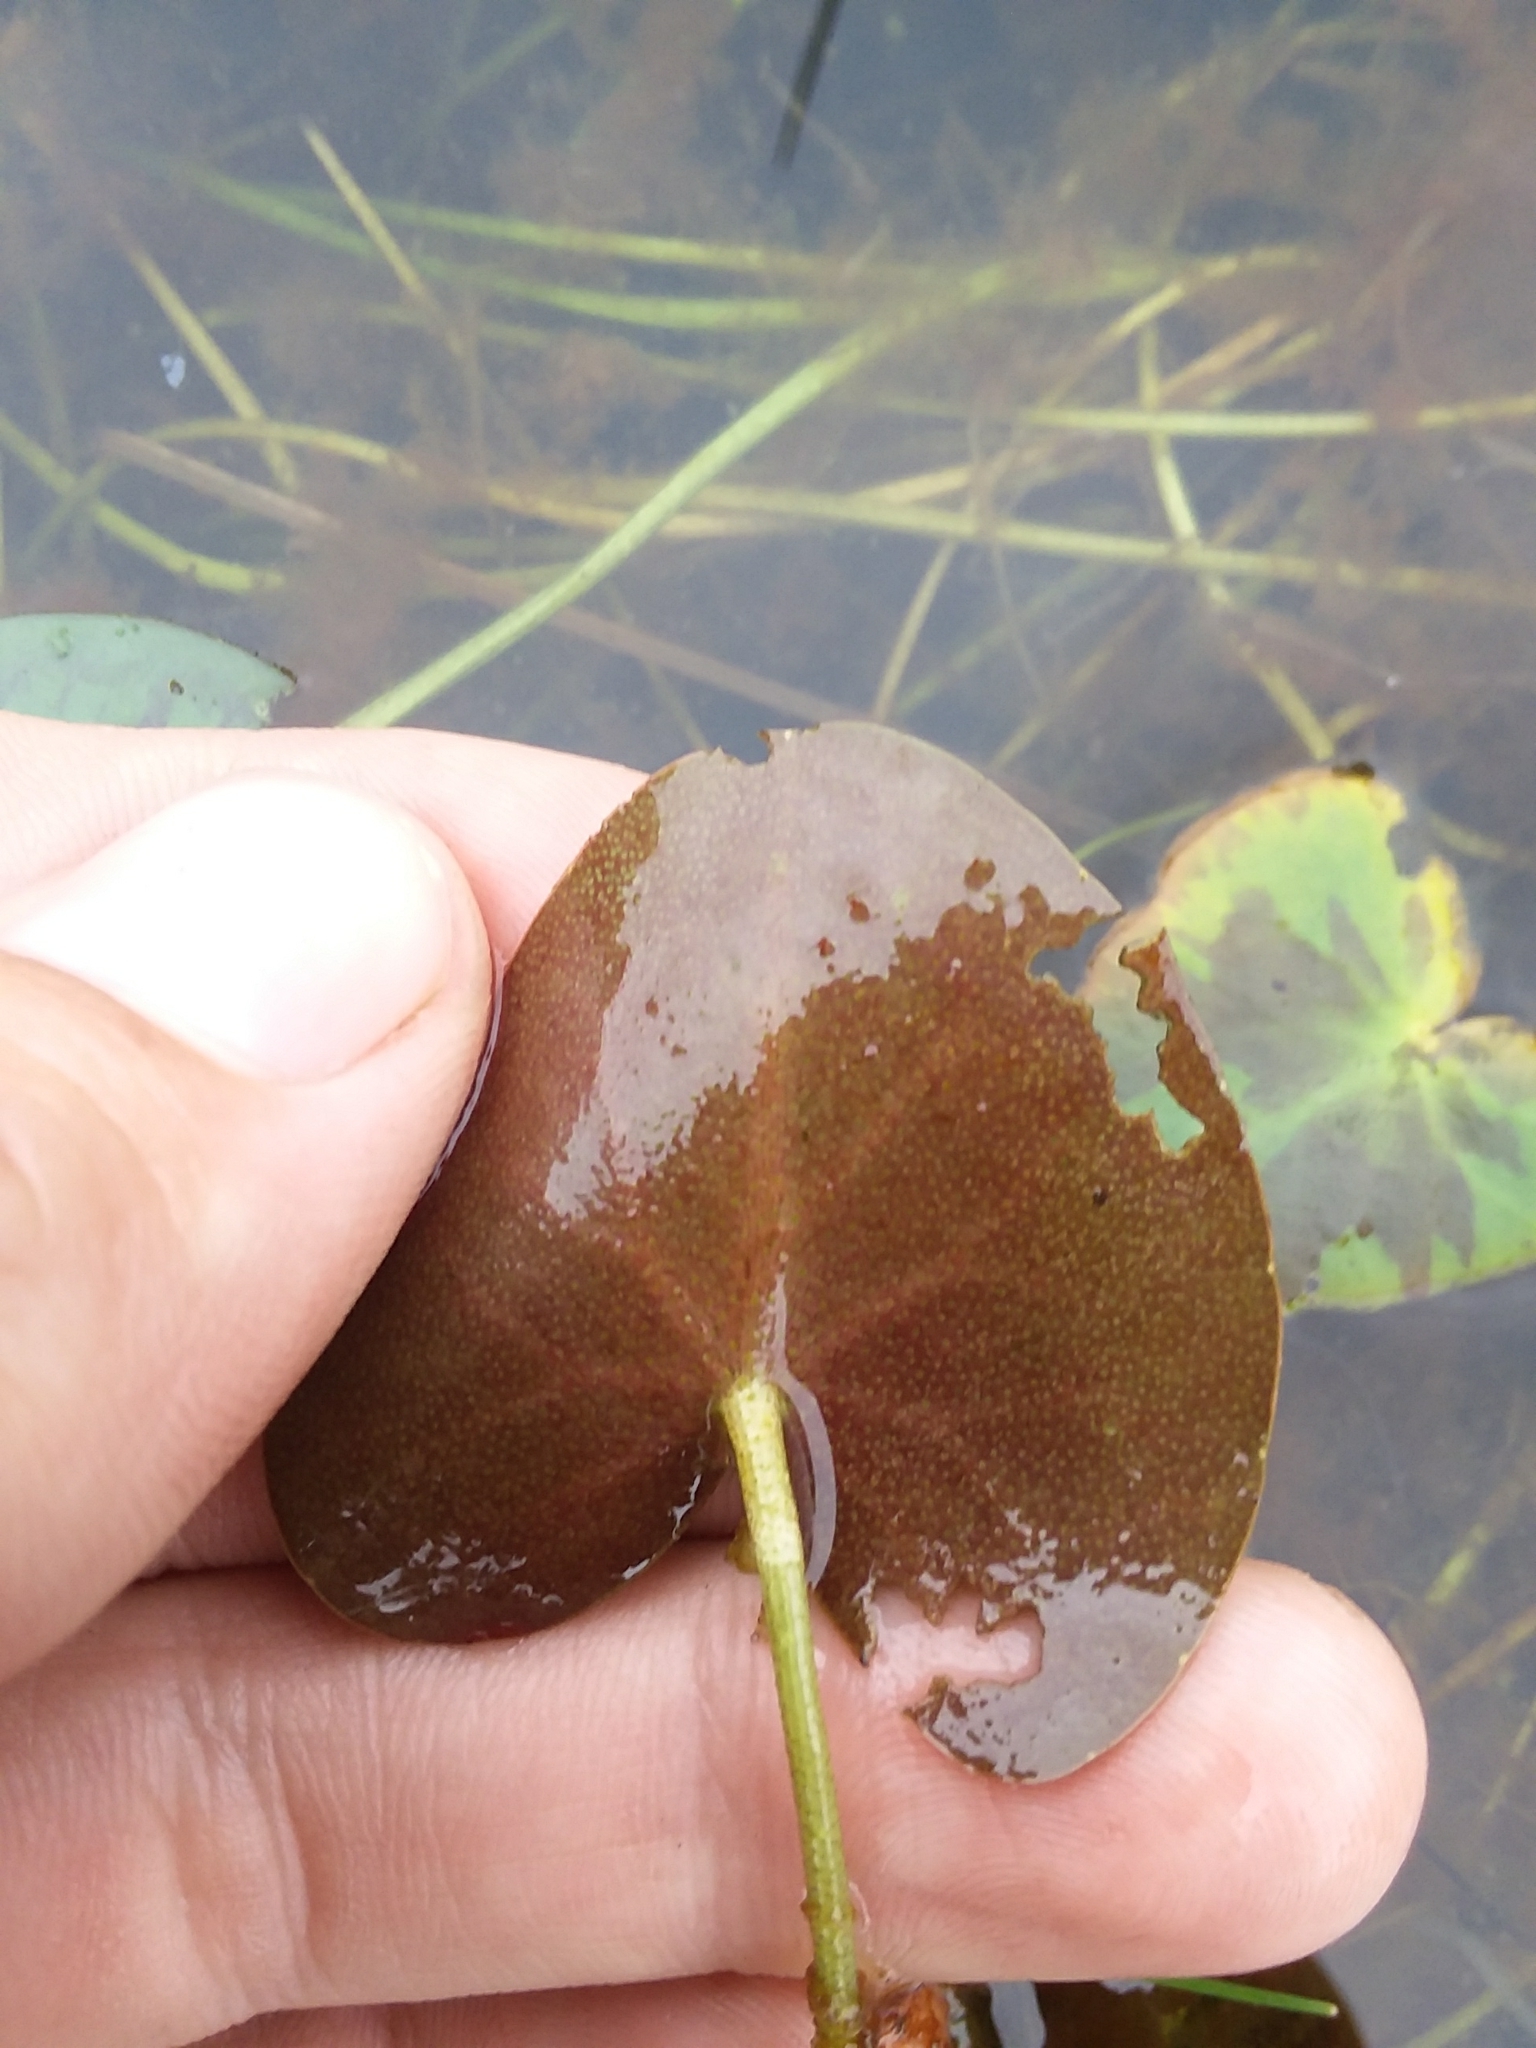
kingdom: Plantae
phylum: Tracheophyta
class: Magnoliopsida
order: Asterales
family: Menyanthaceae
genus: Nymphoides
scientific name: Nymphoides cordata
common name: Eight-angled floatingheart
